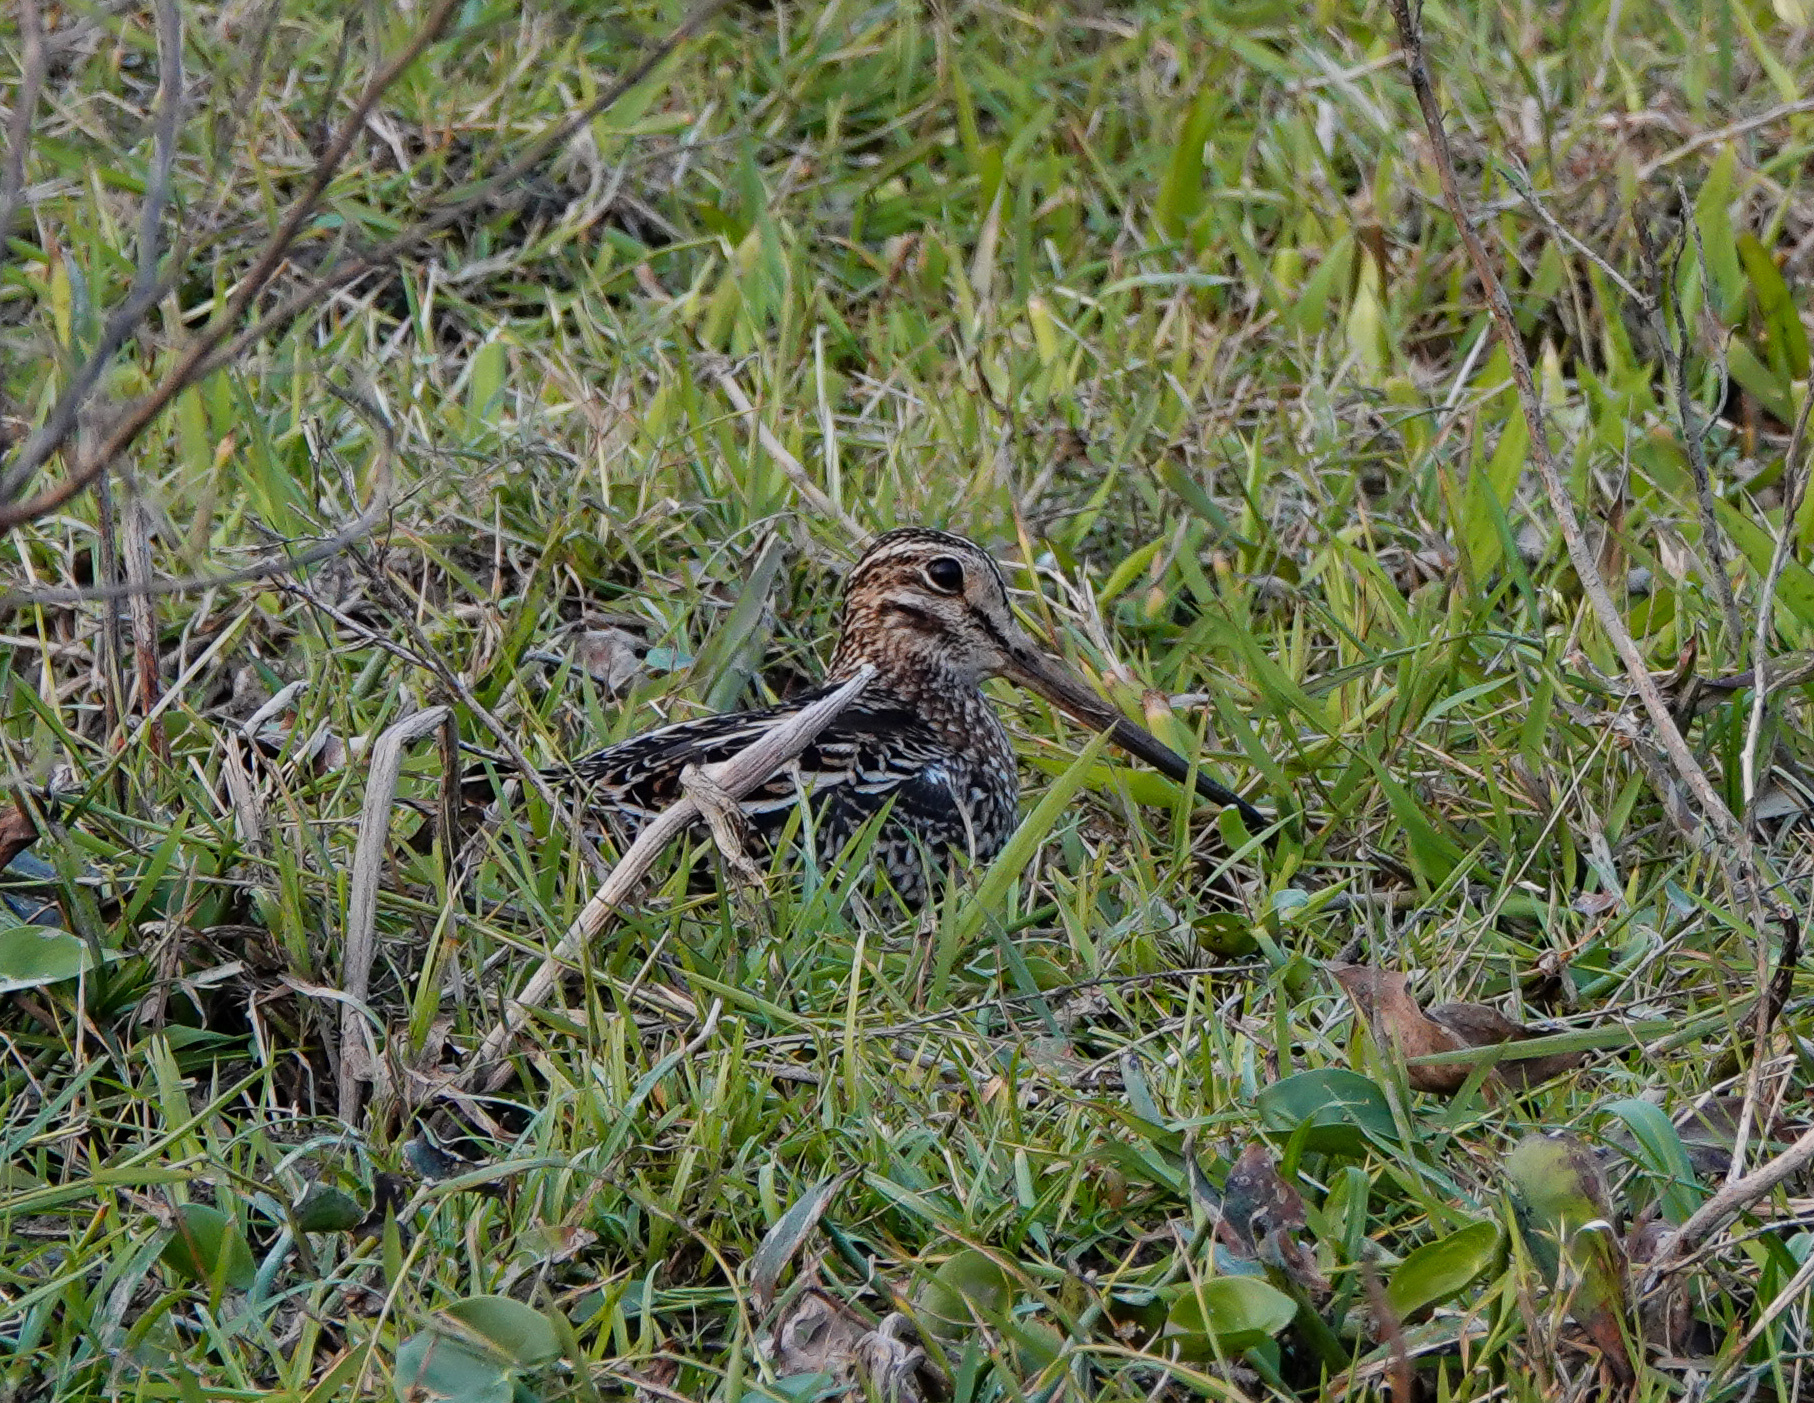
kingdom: Animalia
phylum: Chordata
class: Aves
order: Charadriiformes
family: Scolopacidae
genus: Gallinago
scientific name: Gallinago gallinago
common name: Common snipe
